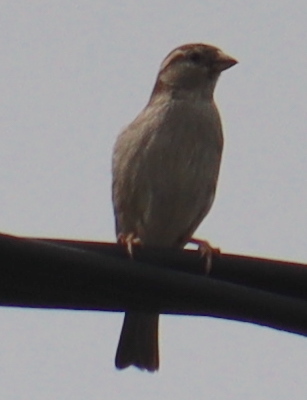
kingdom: Animalia
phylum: Chordata
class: Aves
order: Passeriformes
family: Passeridae
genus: Passer
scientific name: Passer domesticus
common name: House sparrow
